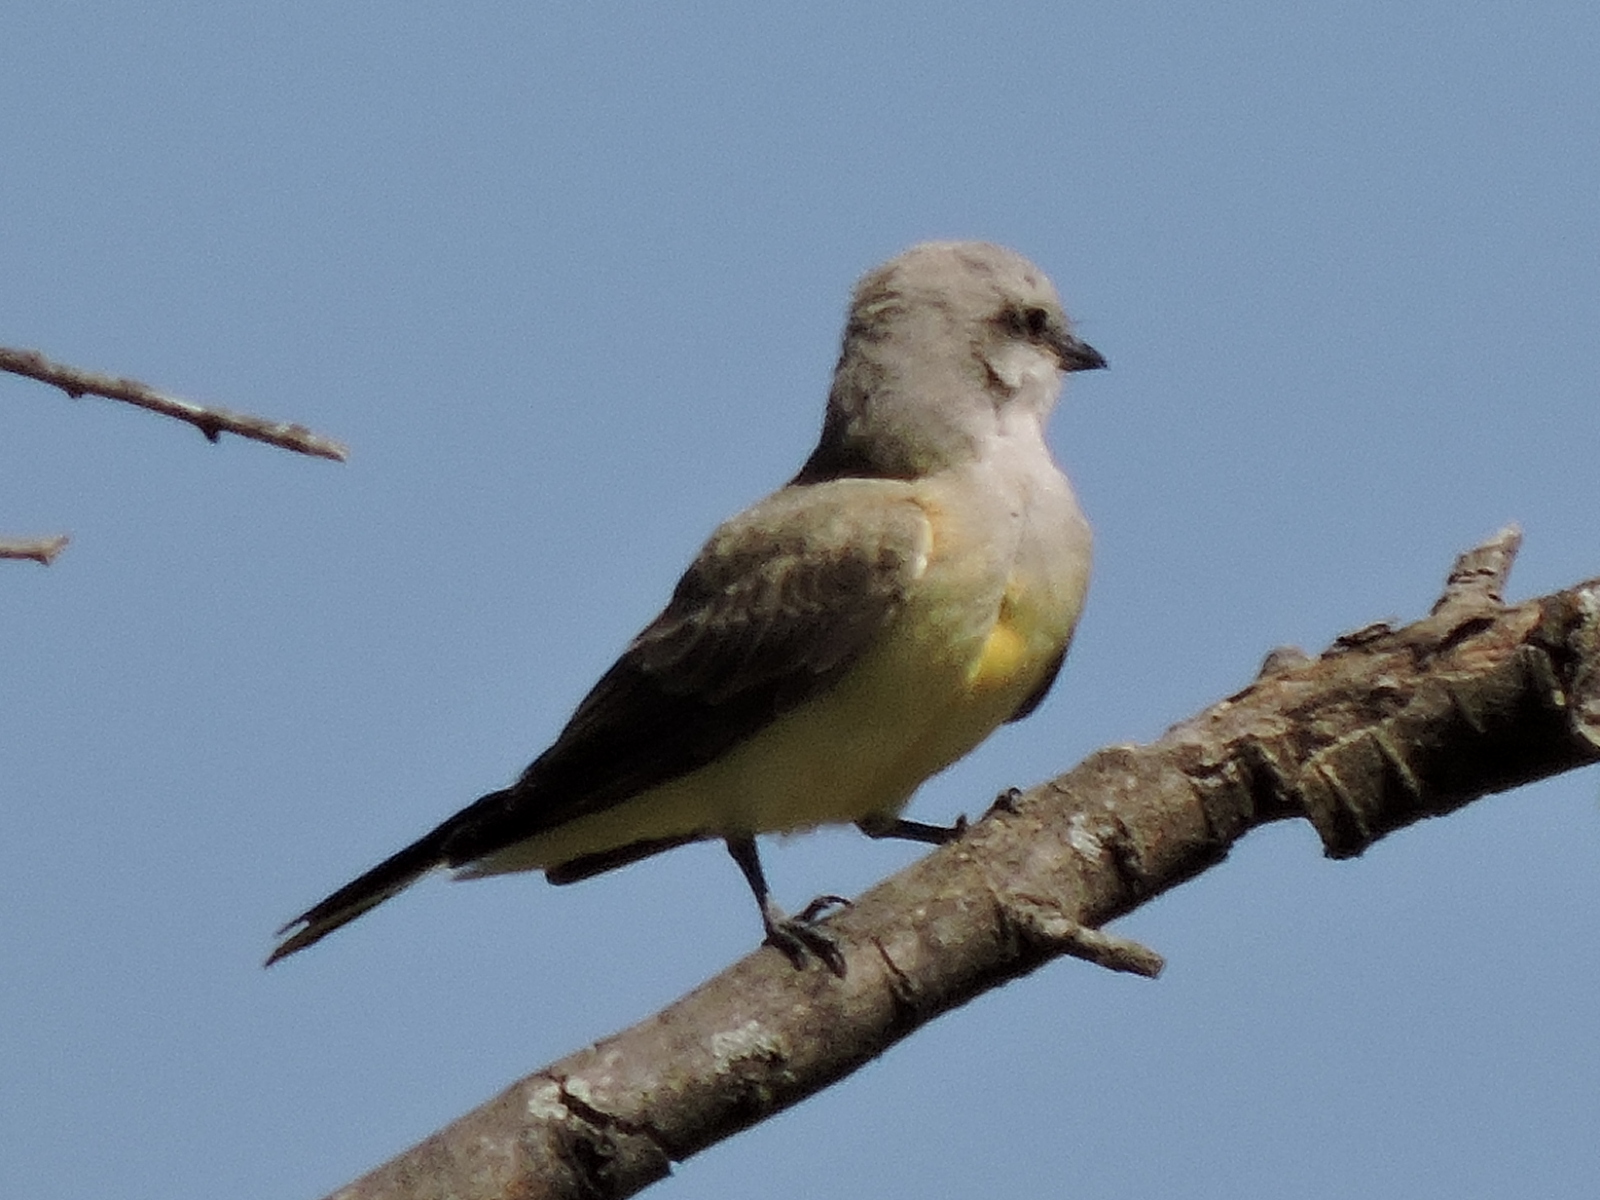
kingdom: Animalia
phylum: Chordata
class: Aves
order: Passeriformes
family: Tyrannidae
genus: Tyrannus
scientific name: Tyrannus verticalis
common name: Western kingbird
